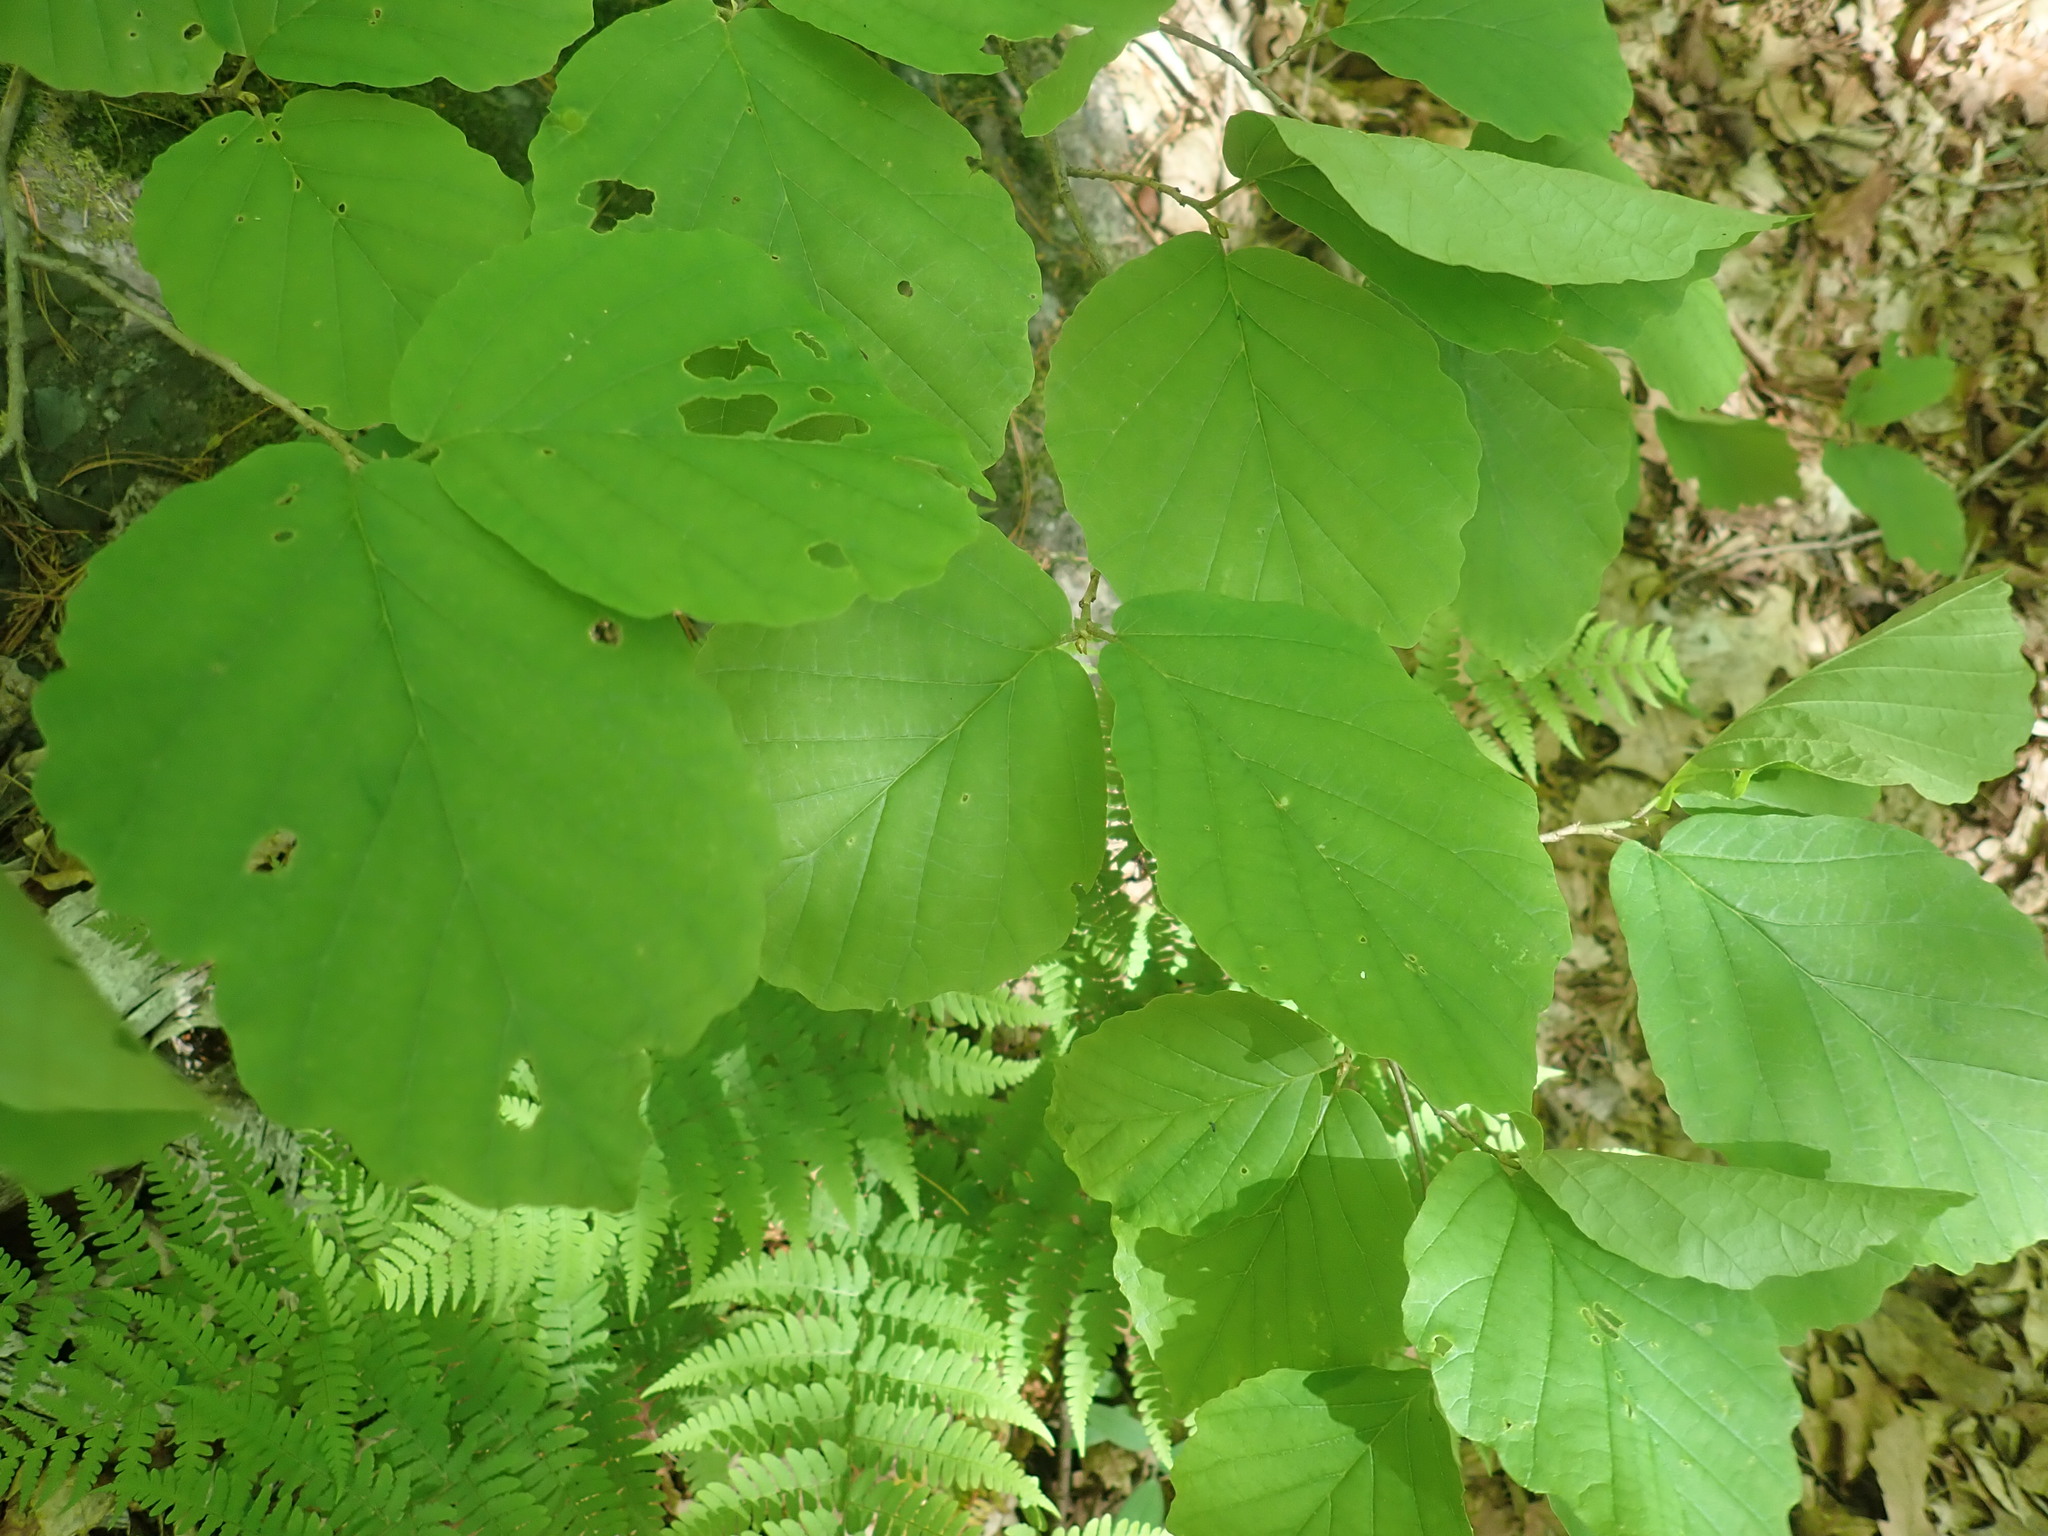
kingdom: Plantae
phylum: Tracheophyta
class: Magnoliopsida
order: Saxifragales
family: Hamamelidaceae
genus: Hamamelis
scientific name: Hamamelis virginiana
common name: Witch-hazel
